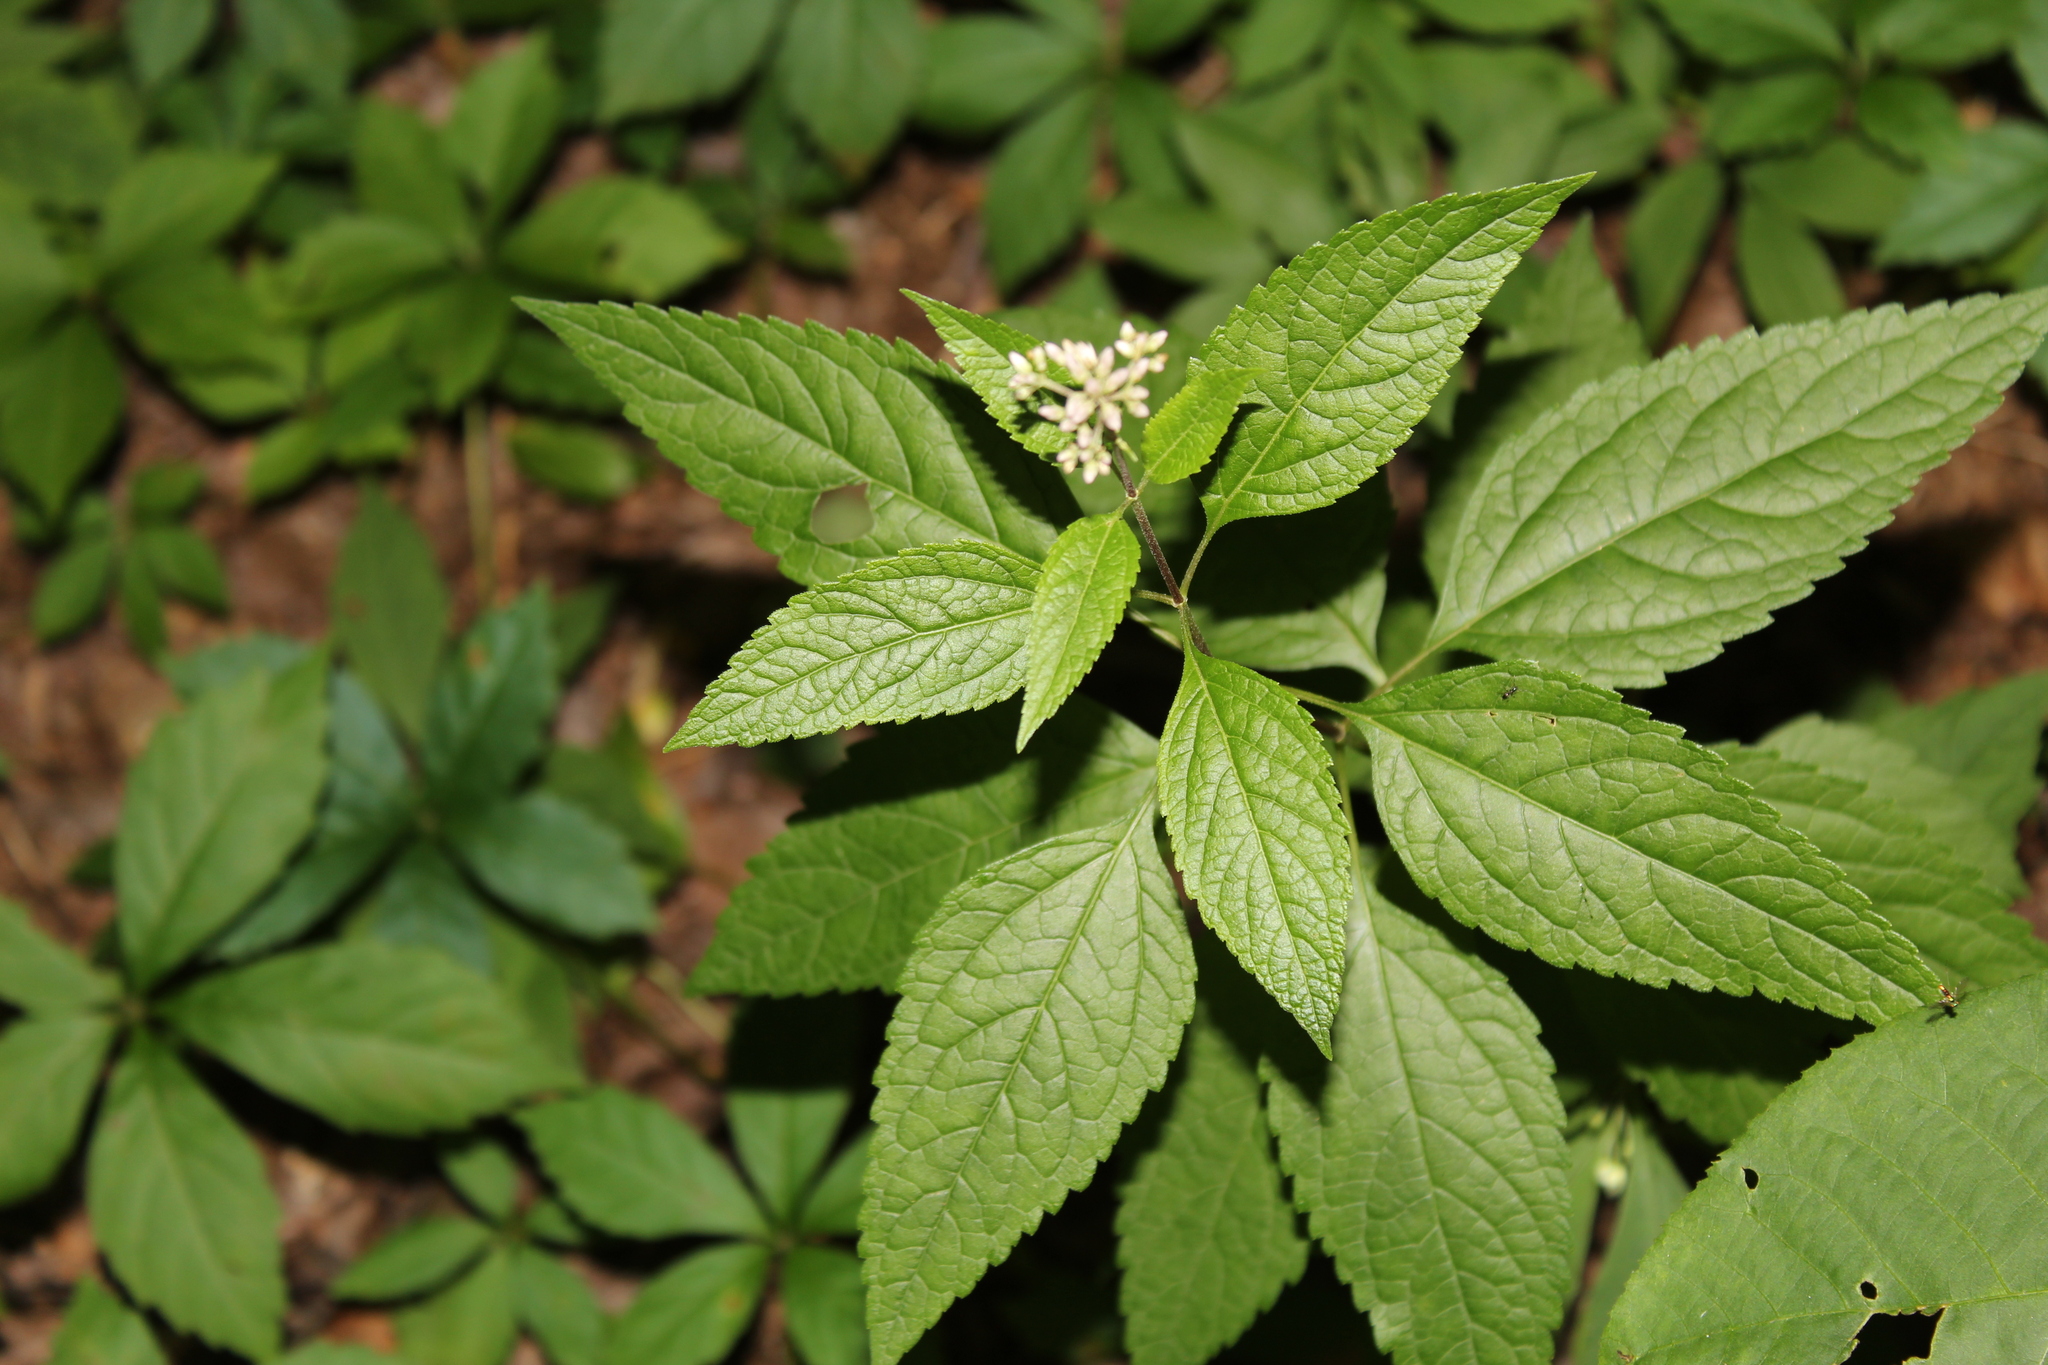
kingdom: Plantae
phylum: Tracheophyta
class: Magnoliopsida
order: Asterales
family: Asteraceae
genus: Eutrochium
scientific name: Eutrochium dubium
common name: Coastal plain joe pye weed
